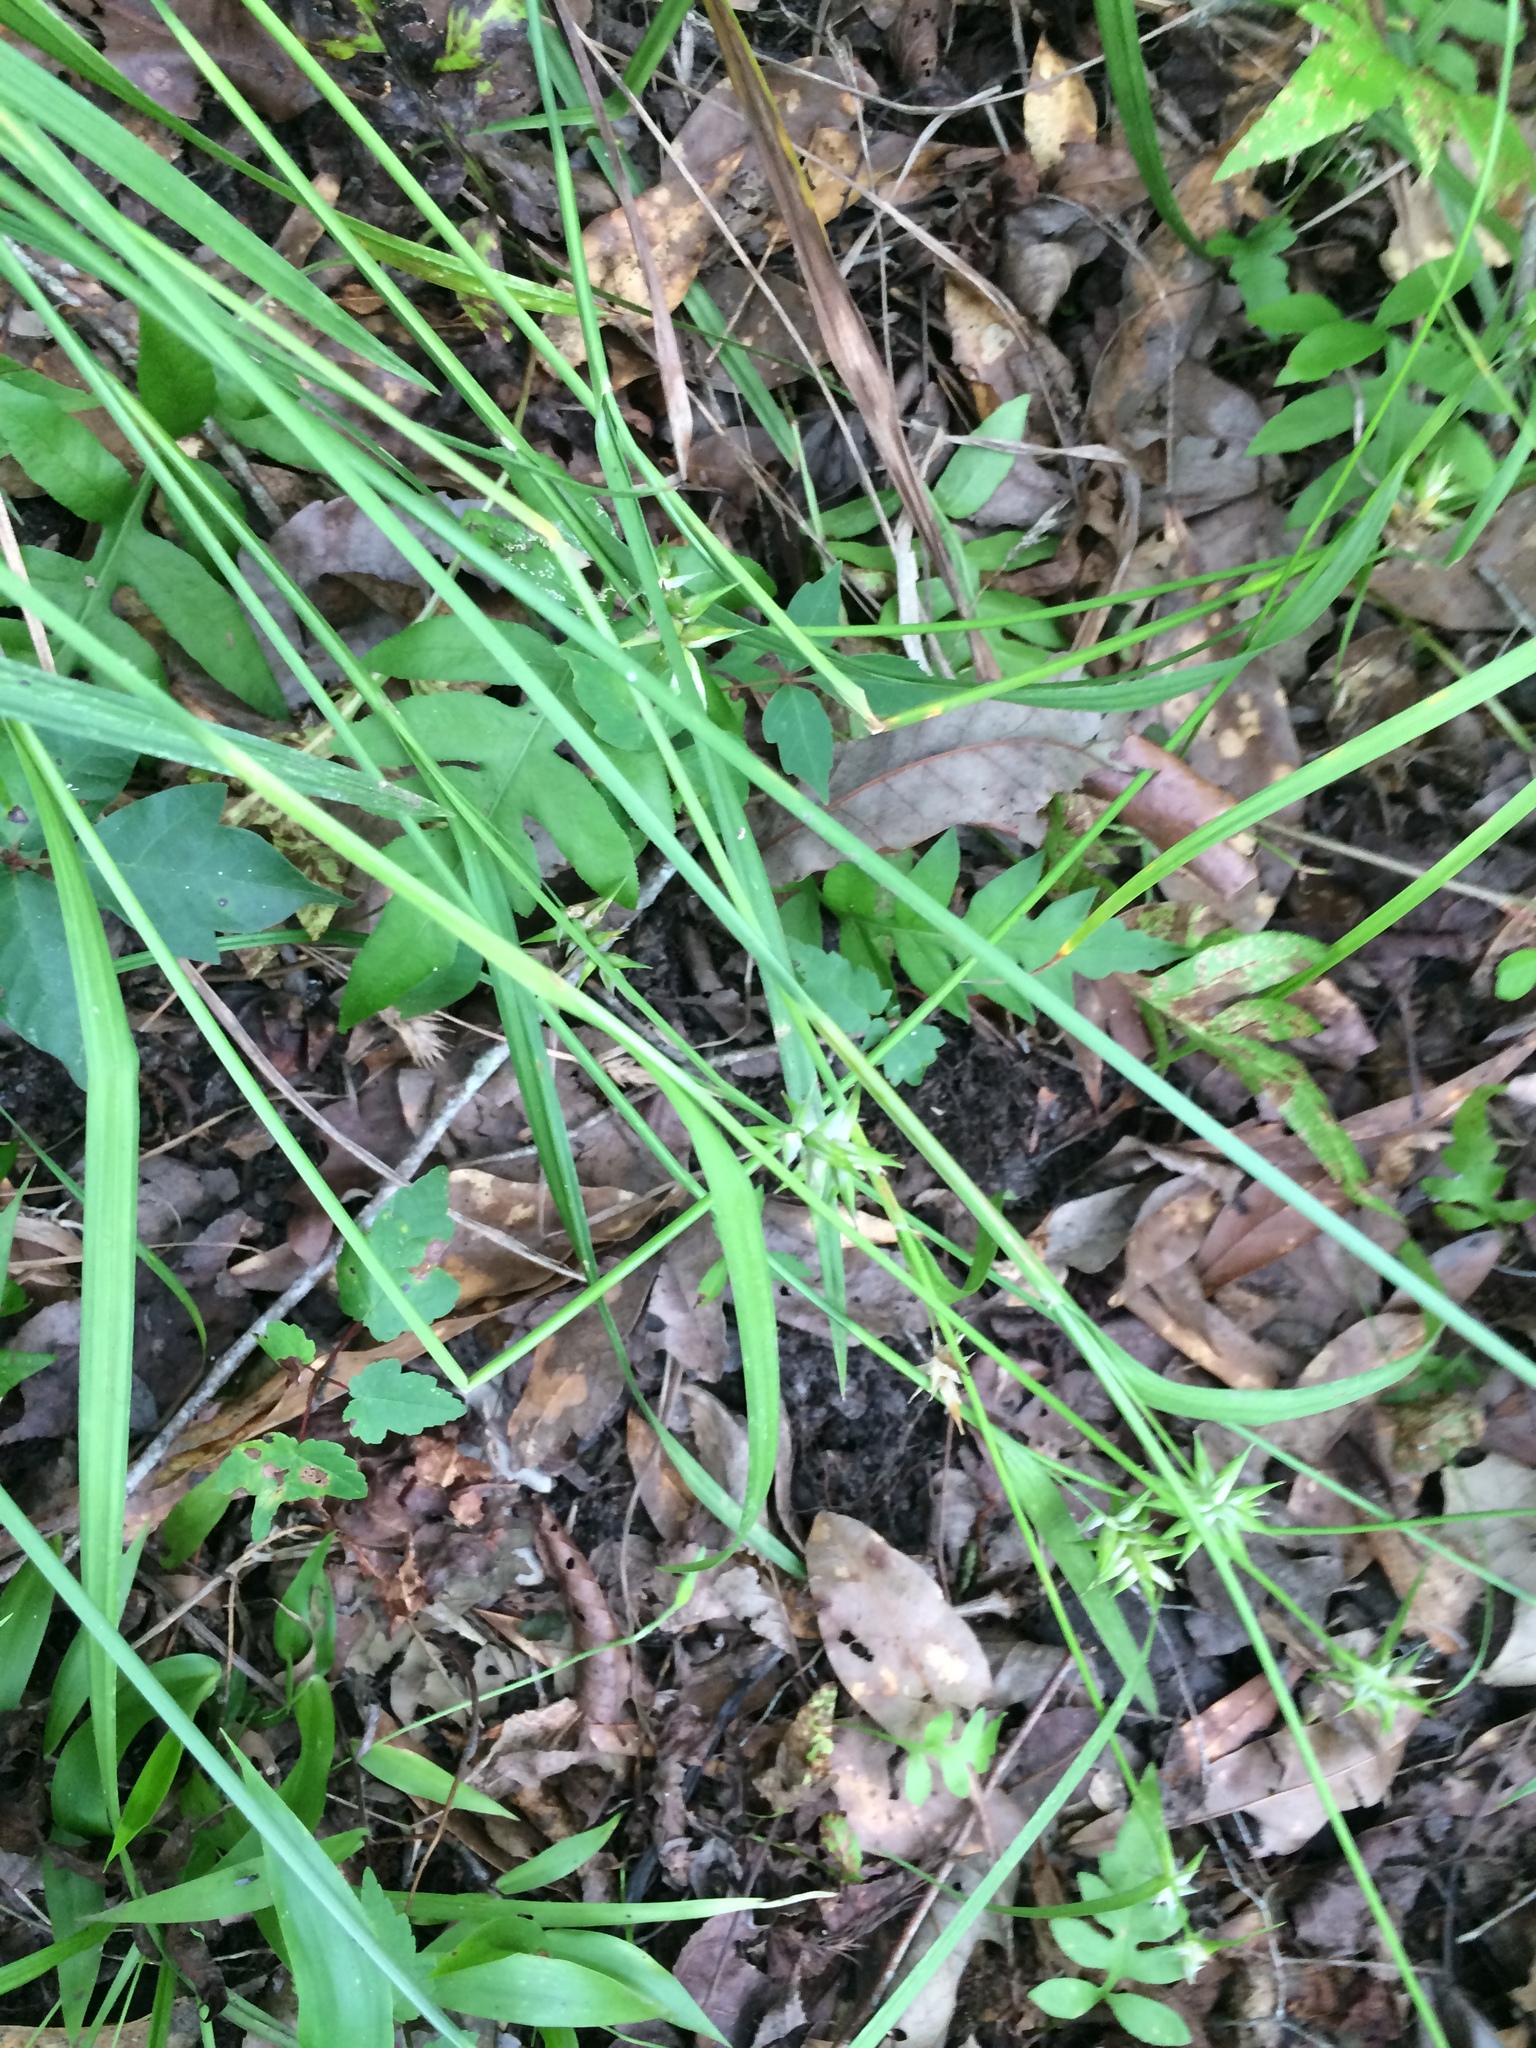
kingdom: Plantae
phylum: Tracheophyta
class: Liliopsida
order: Poales
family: Cyperaceae
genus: Carex
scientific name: Carex lonchocarpa
